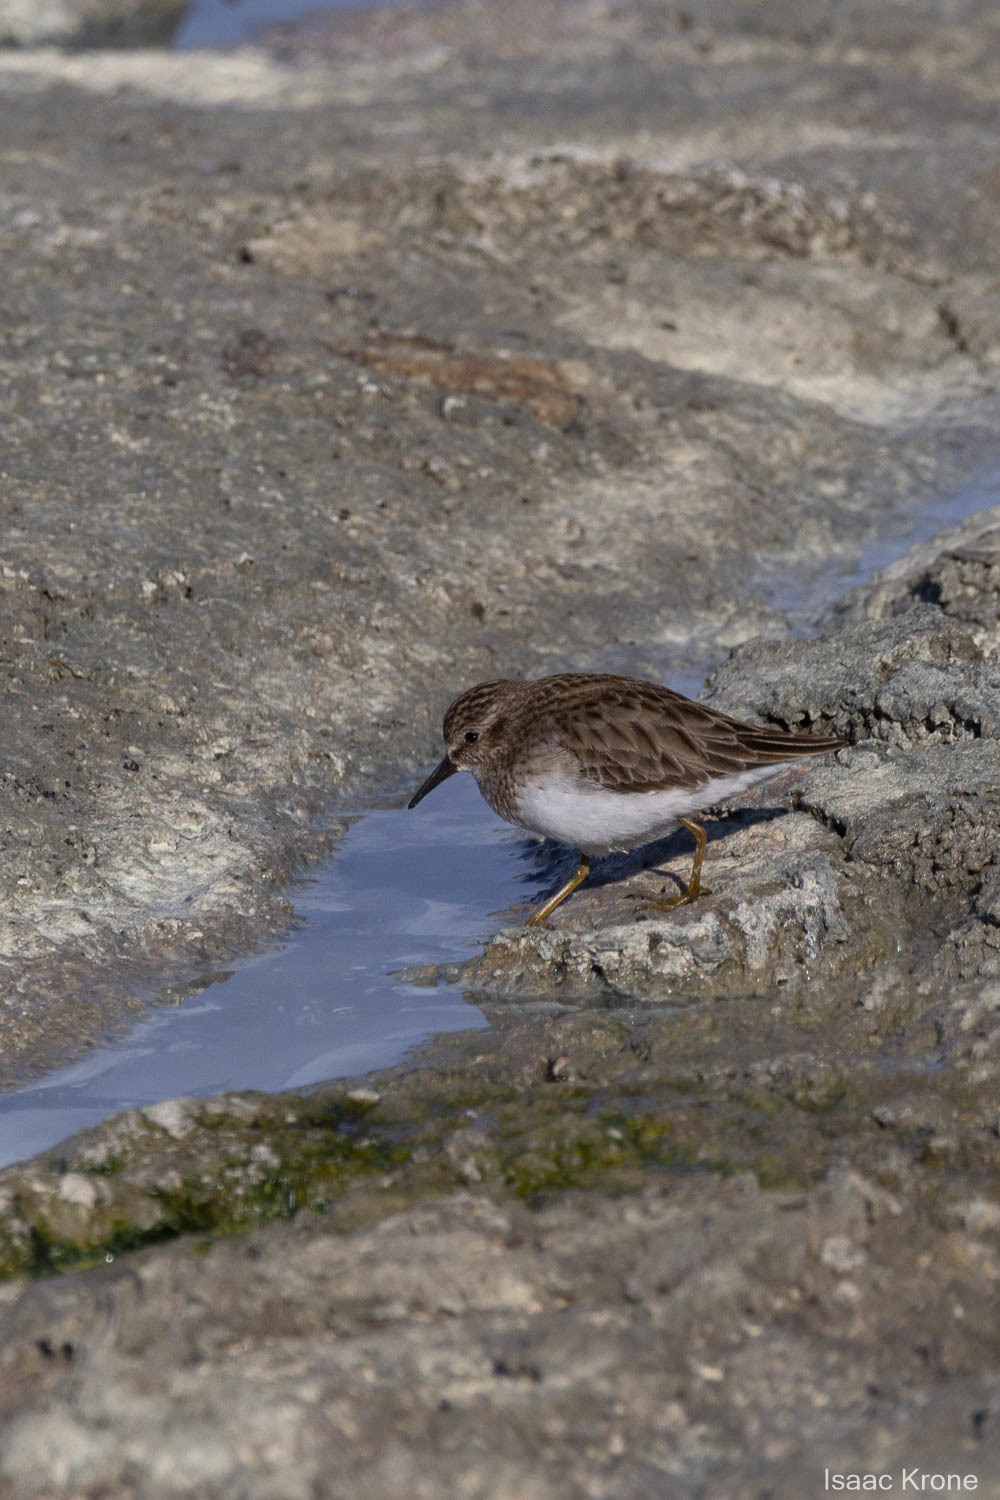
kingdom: Animalia
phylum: Chordata
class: Aves
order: Charadriiformes
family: Scolopacidae
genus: Calidris
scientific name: Calidris minutilla
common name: Least sandpiper
